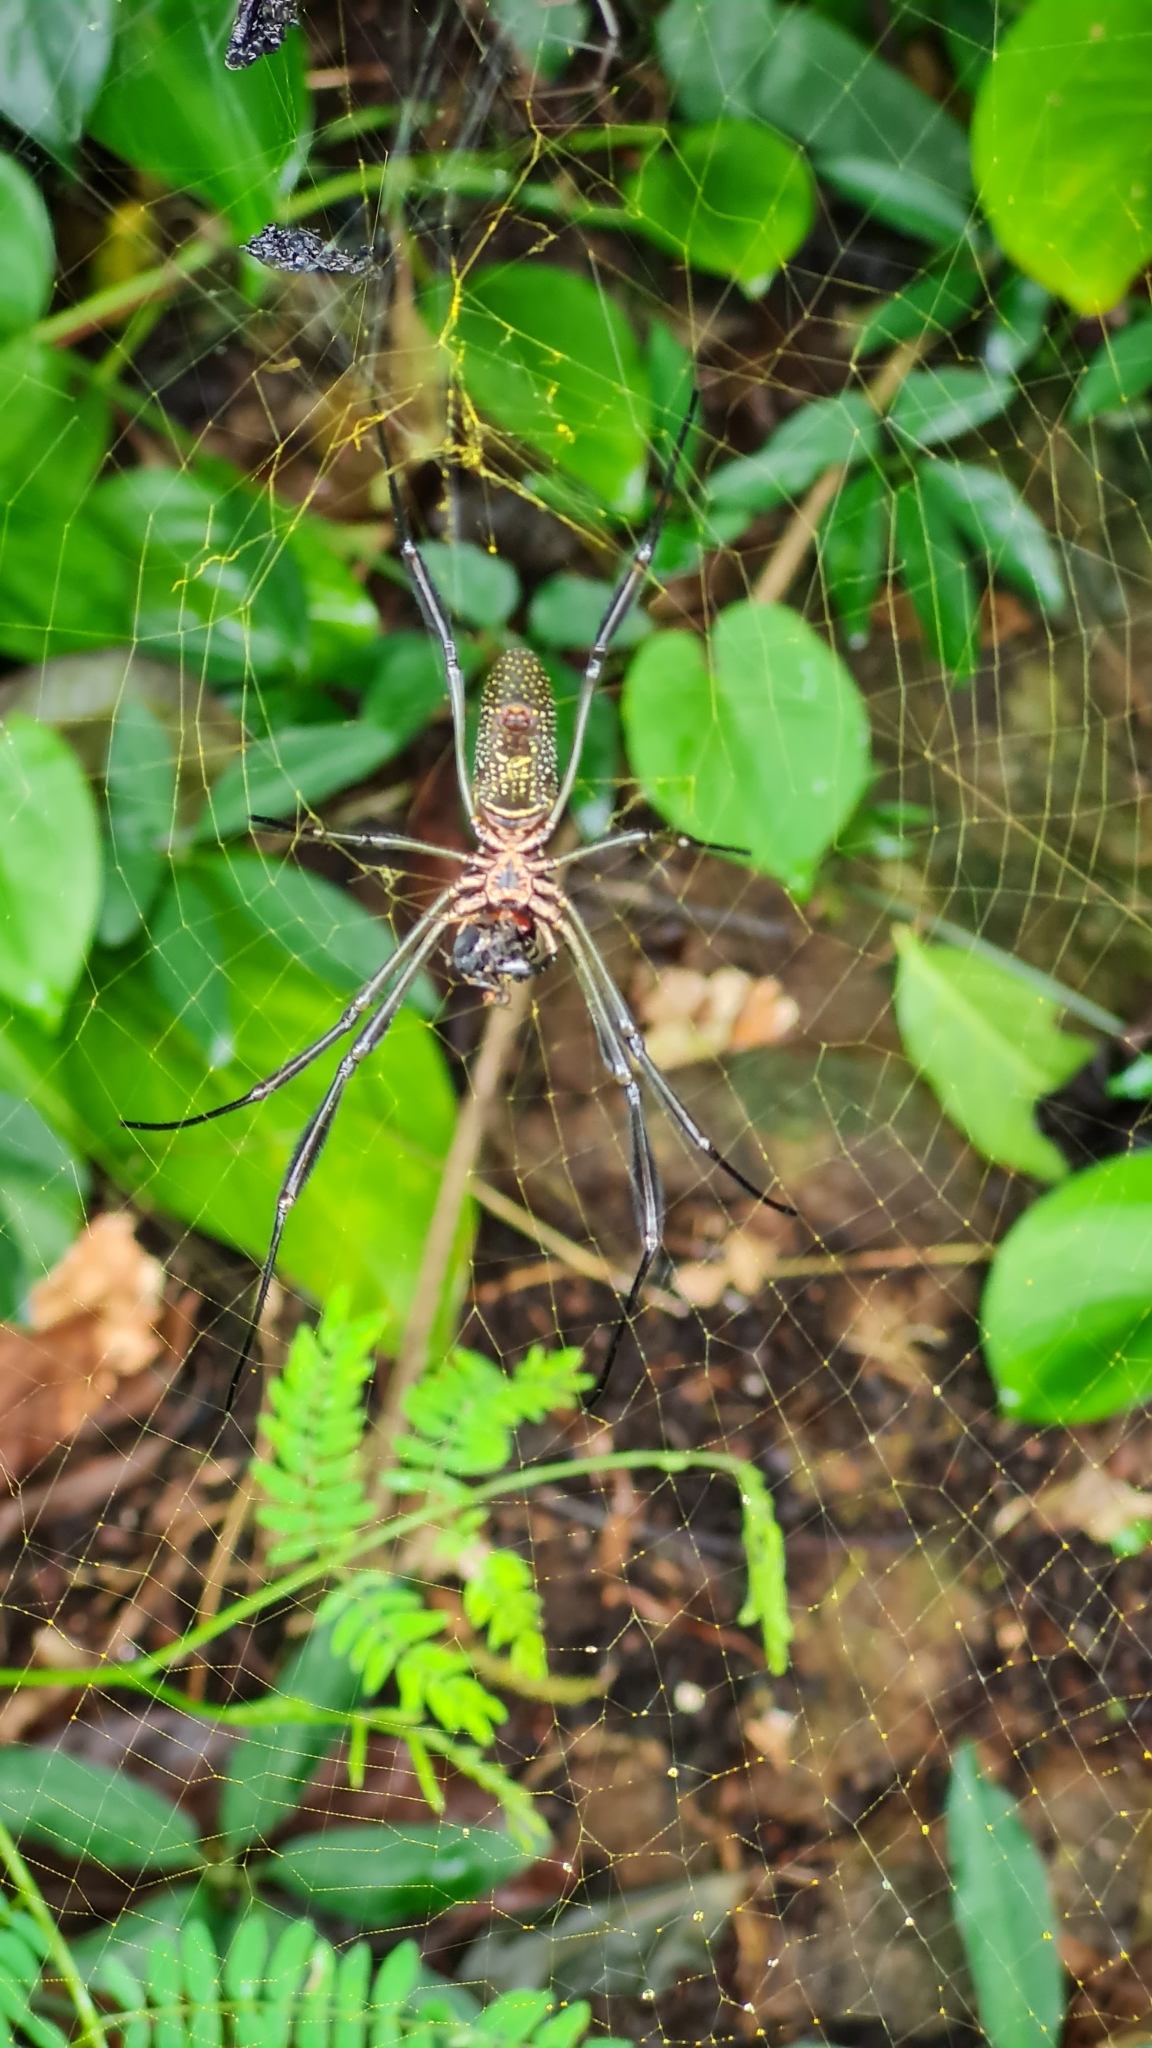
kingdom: Animalia
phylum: Arthropoda
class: Arachnida
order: Araneae
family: Araneidae
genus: Trichonephila
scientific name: Trichonephila clavipes
